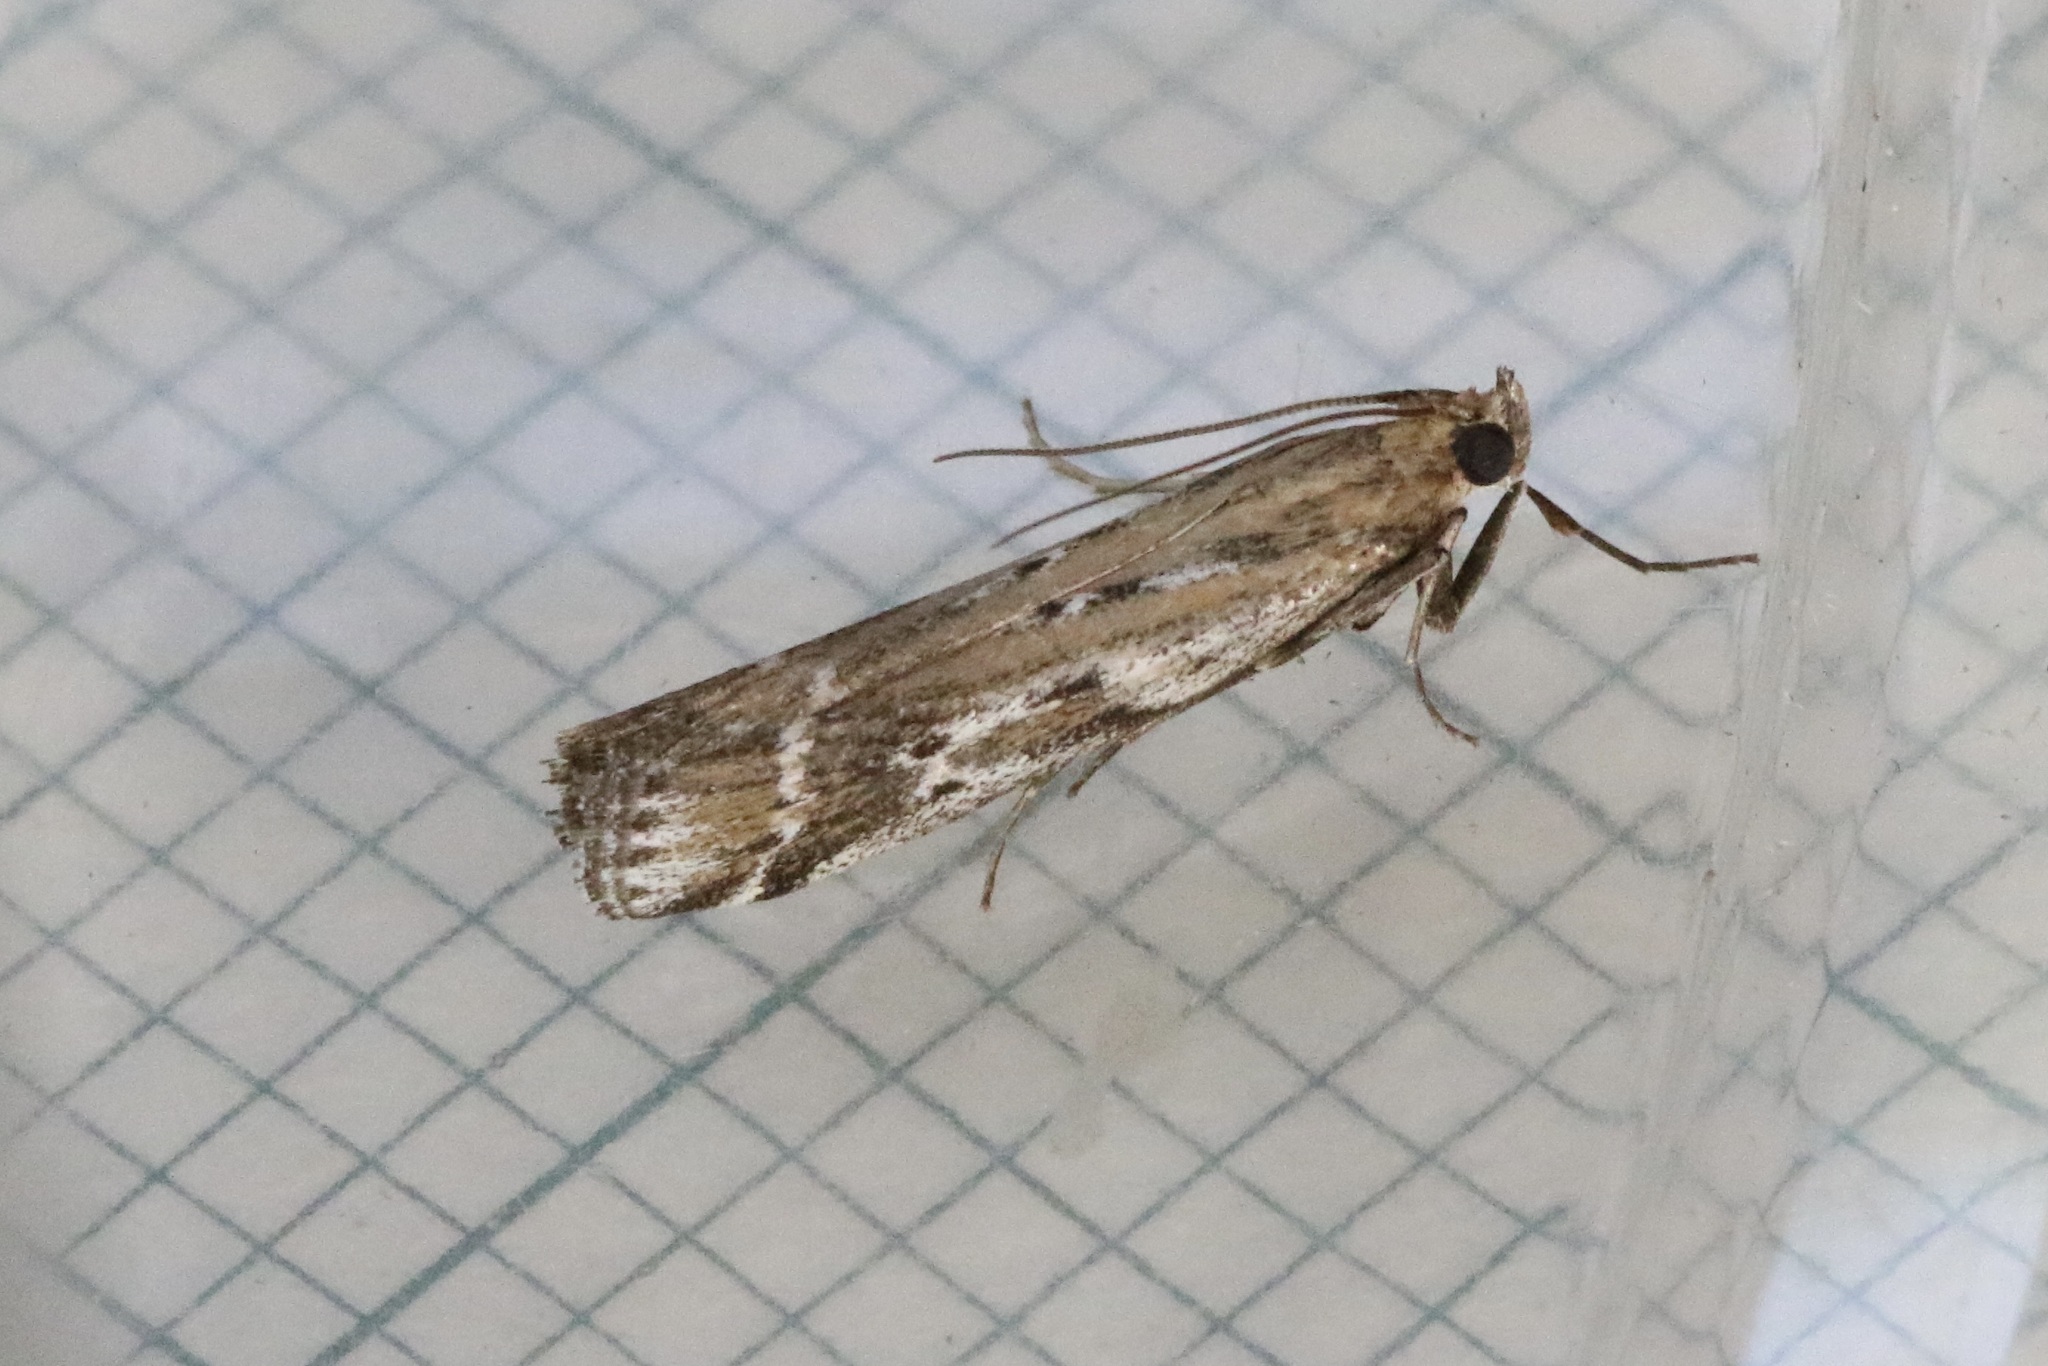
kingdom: Animalia
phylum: Arthropoda
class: Insecta
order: Lepidoptera
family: Pyralidae
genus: Pempelia
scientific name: Pempelia ornatella
